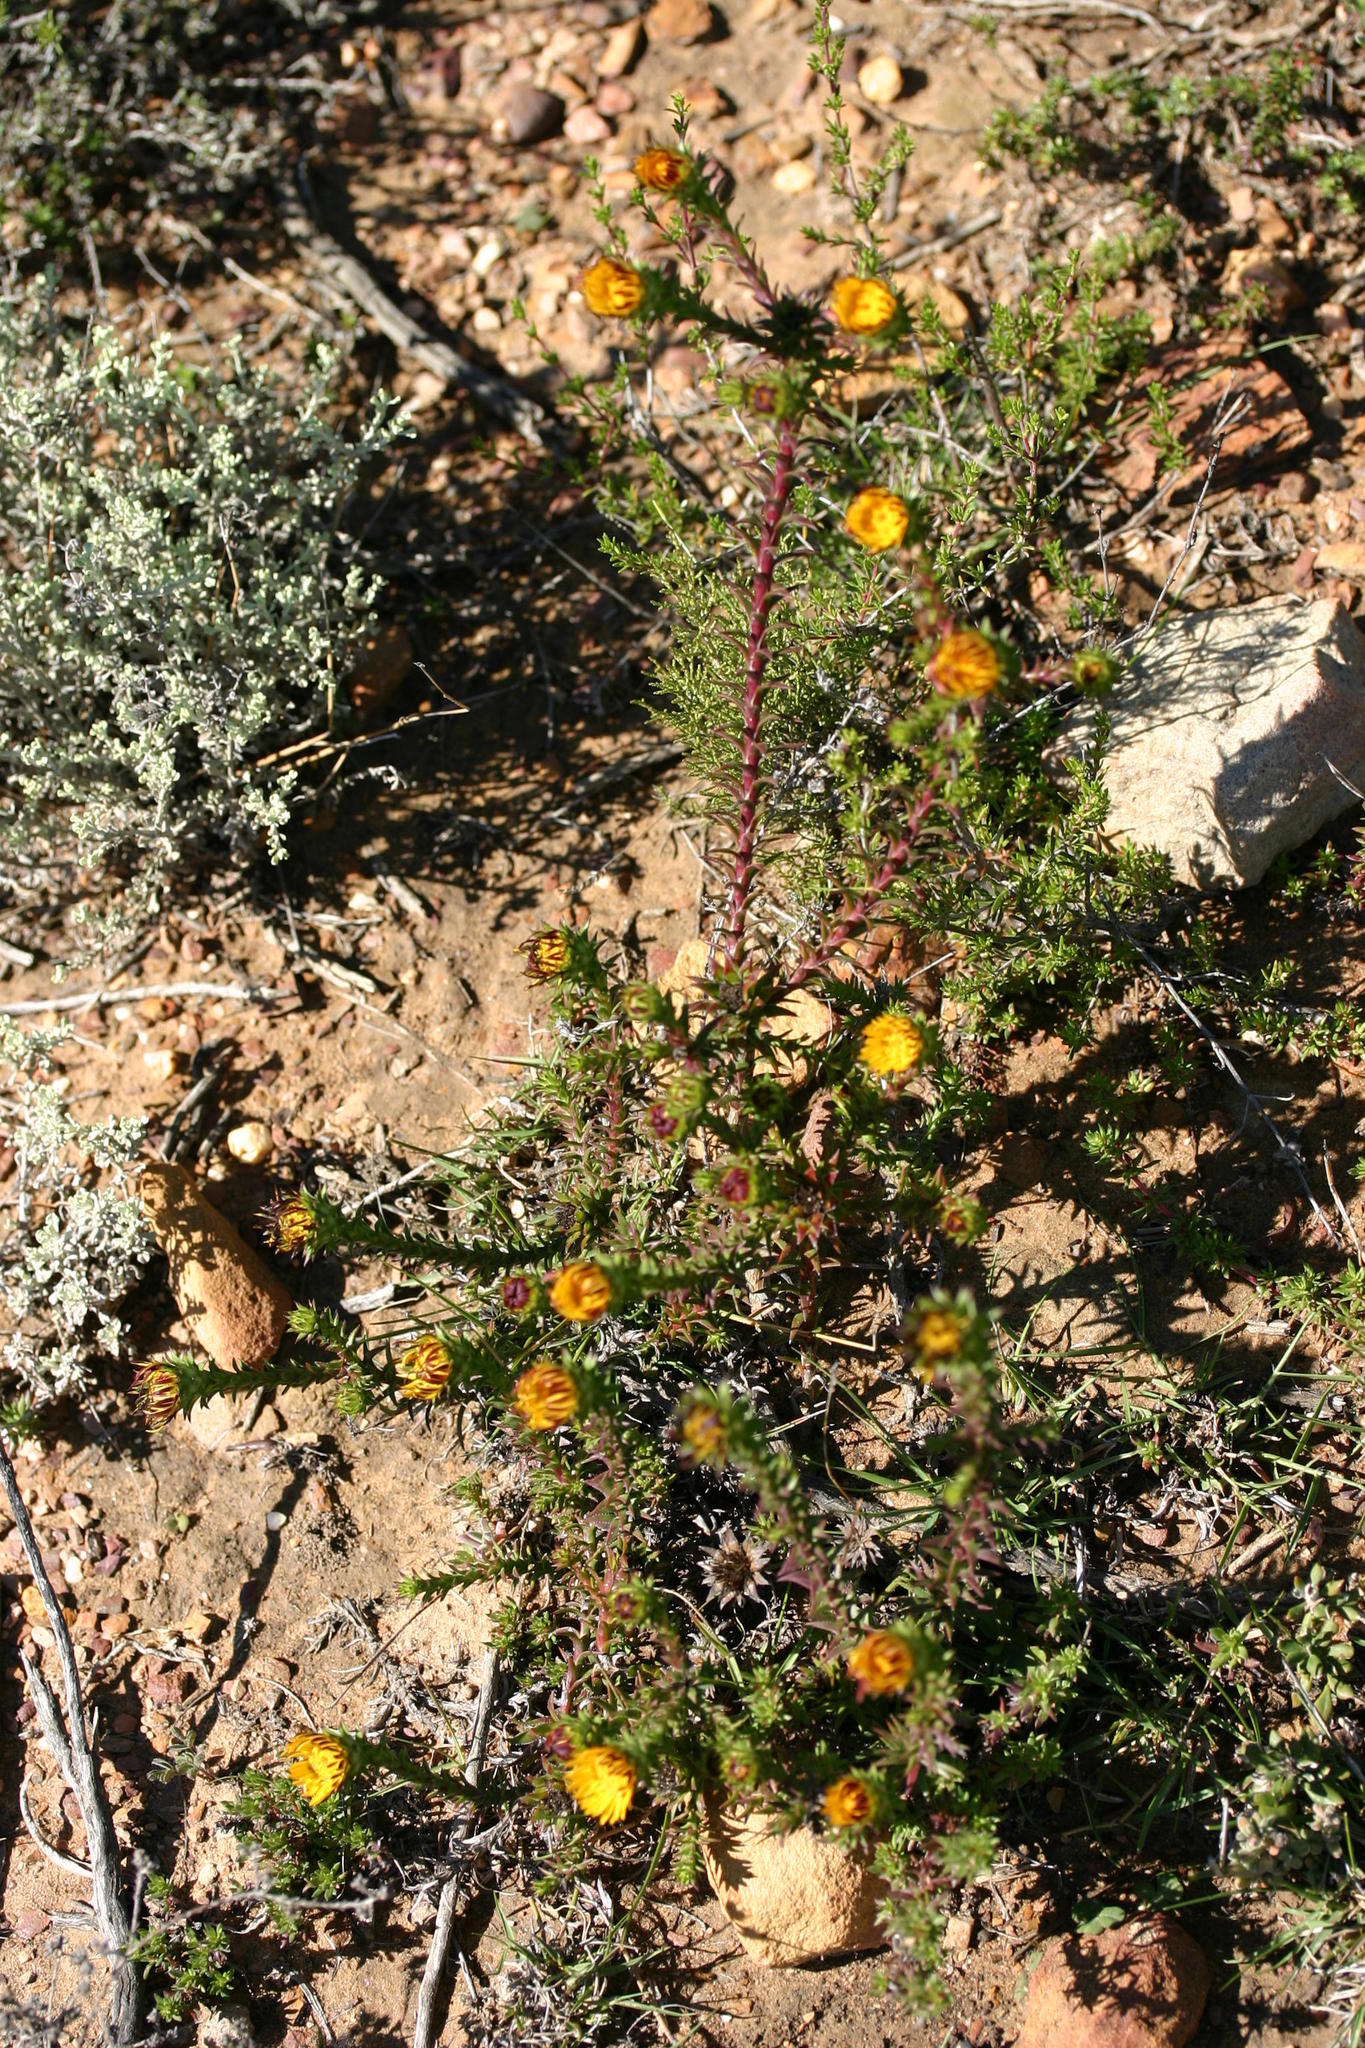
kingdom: Plantae
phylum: Tracheophyta
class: Magnoliopsida
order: Asterales
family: Asteraceae
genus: Oedera
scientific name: Oedera capensis
